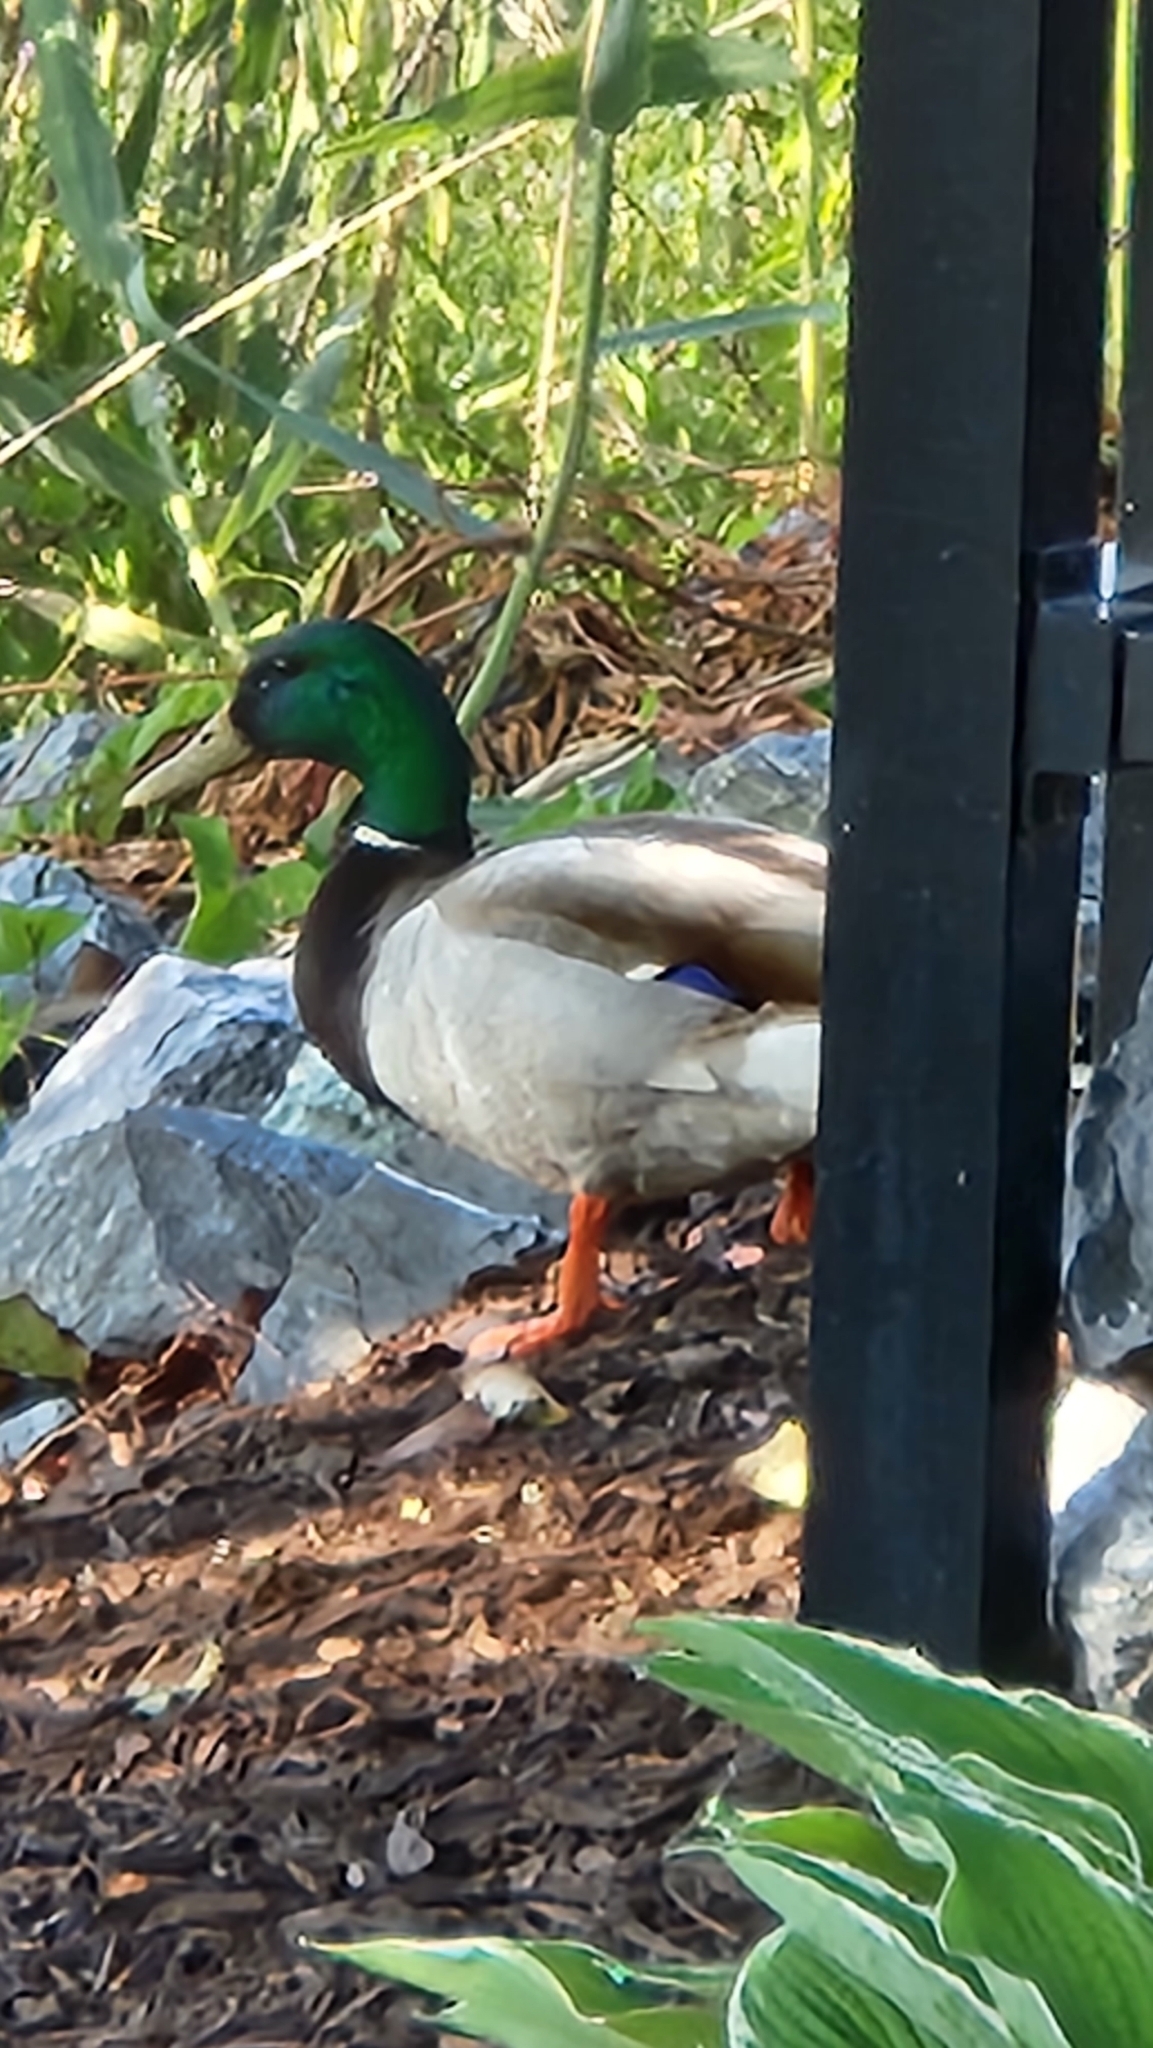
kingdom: Animalia
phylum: Chordata
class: Aves
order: Anseriformes
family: Anatidae
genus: Anas
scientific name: Anas platyrhynchos
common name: Mallard
